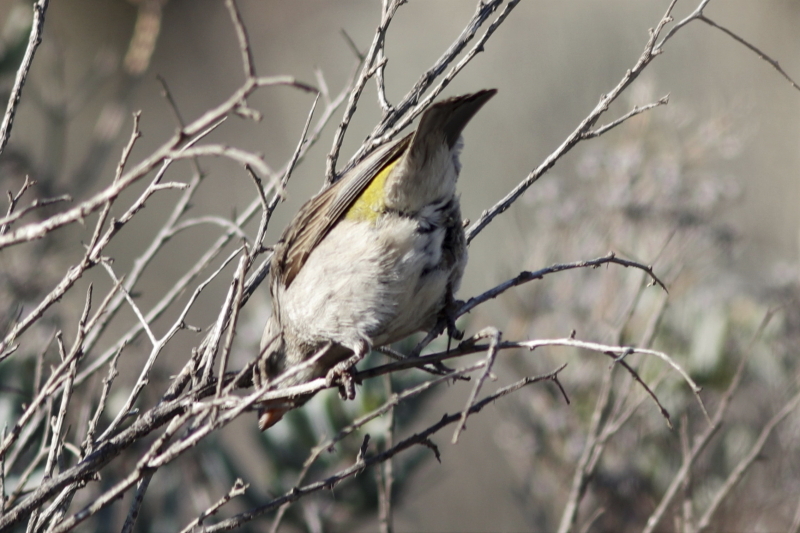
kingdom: Animalia
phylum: Chordata
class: Aves
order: Passeriformes
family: Fringillidae
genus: Crithagra
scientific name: Crithagra albogularis
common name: White-throated canary
